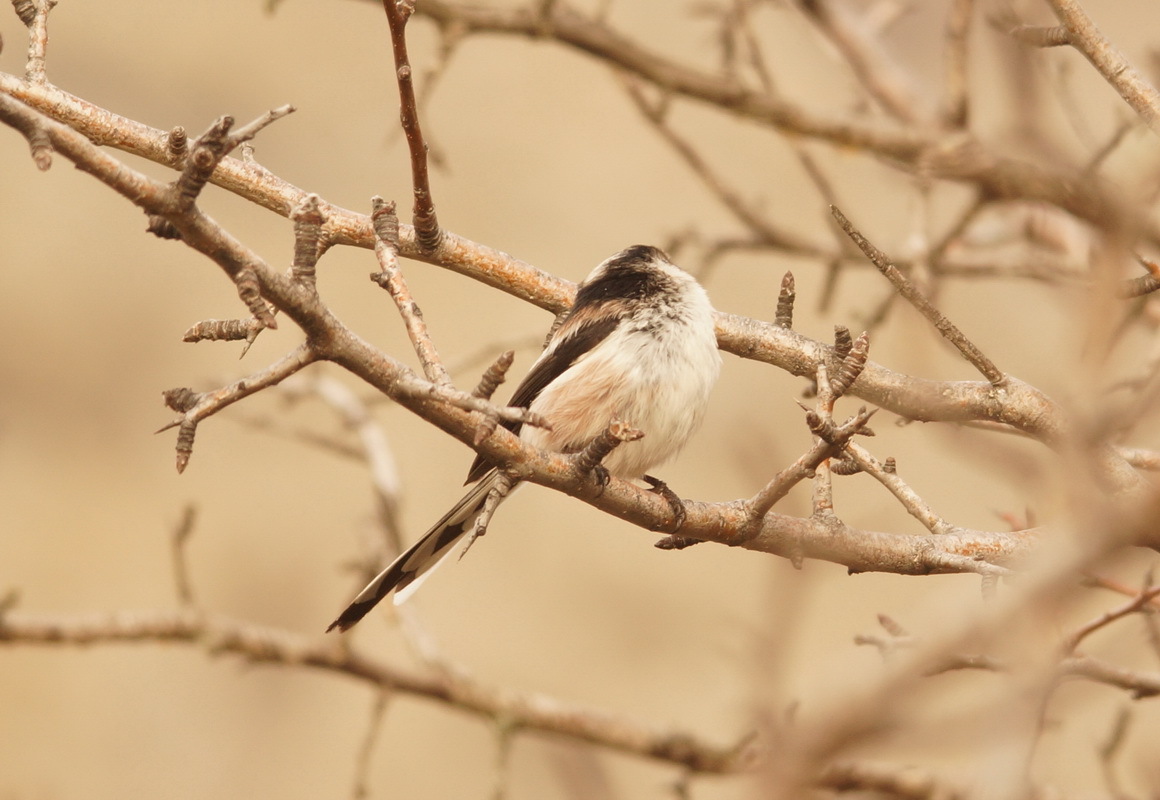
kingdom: Animalia
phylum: Chordata
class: Aves
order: Passeriformes
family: Aegithalidae
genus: Aegithalos
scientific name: Aegithalos caudatus
